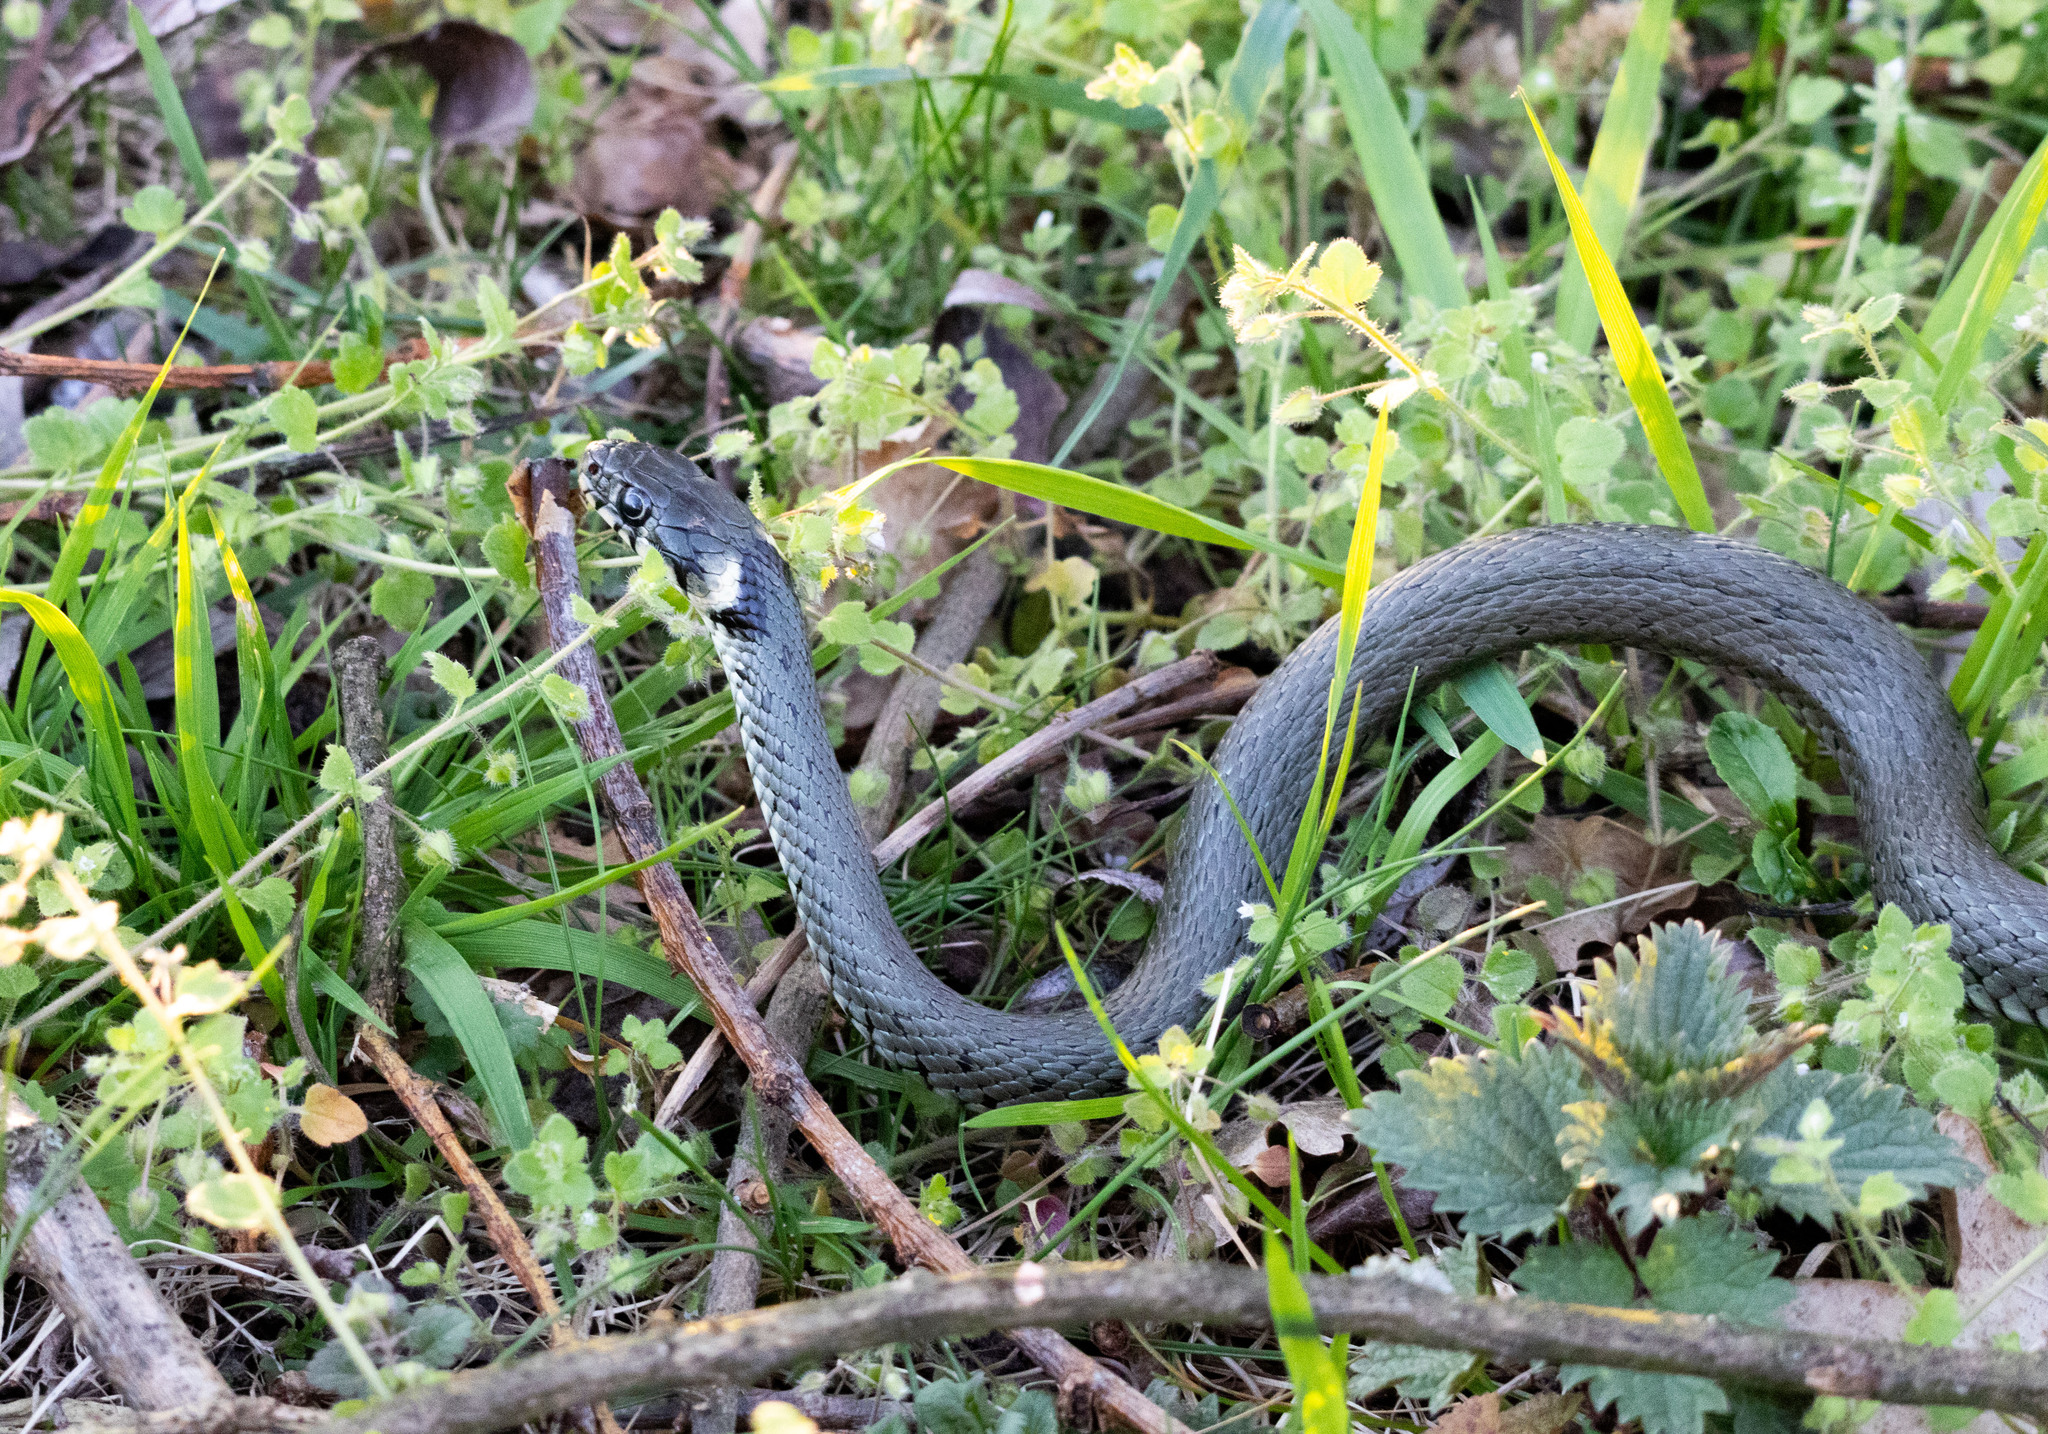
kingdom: Animalia
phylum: Chordata
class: Squamata
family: Colubridae
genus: Natrix
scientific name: Natrix natrix
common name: Grass snake
